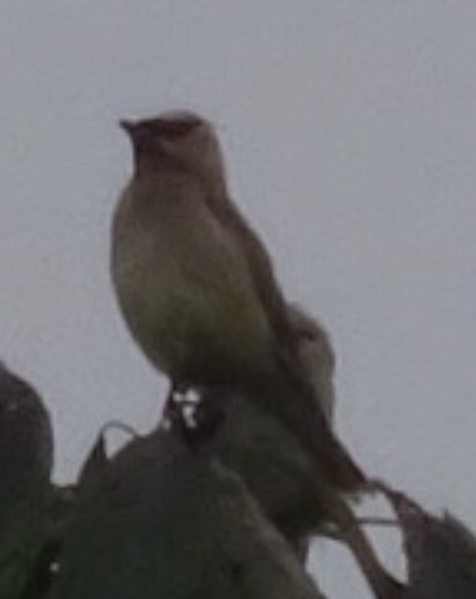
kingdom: Animalia
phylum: Chordata
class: Aves
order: Passeriformes
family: Bombycillidae
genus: Bombycilla
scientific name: Bombycilla cedrorum
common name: Cedar waxwing
